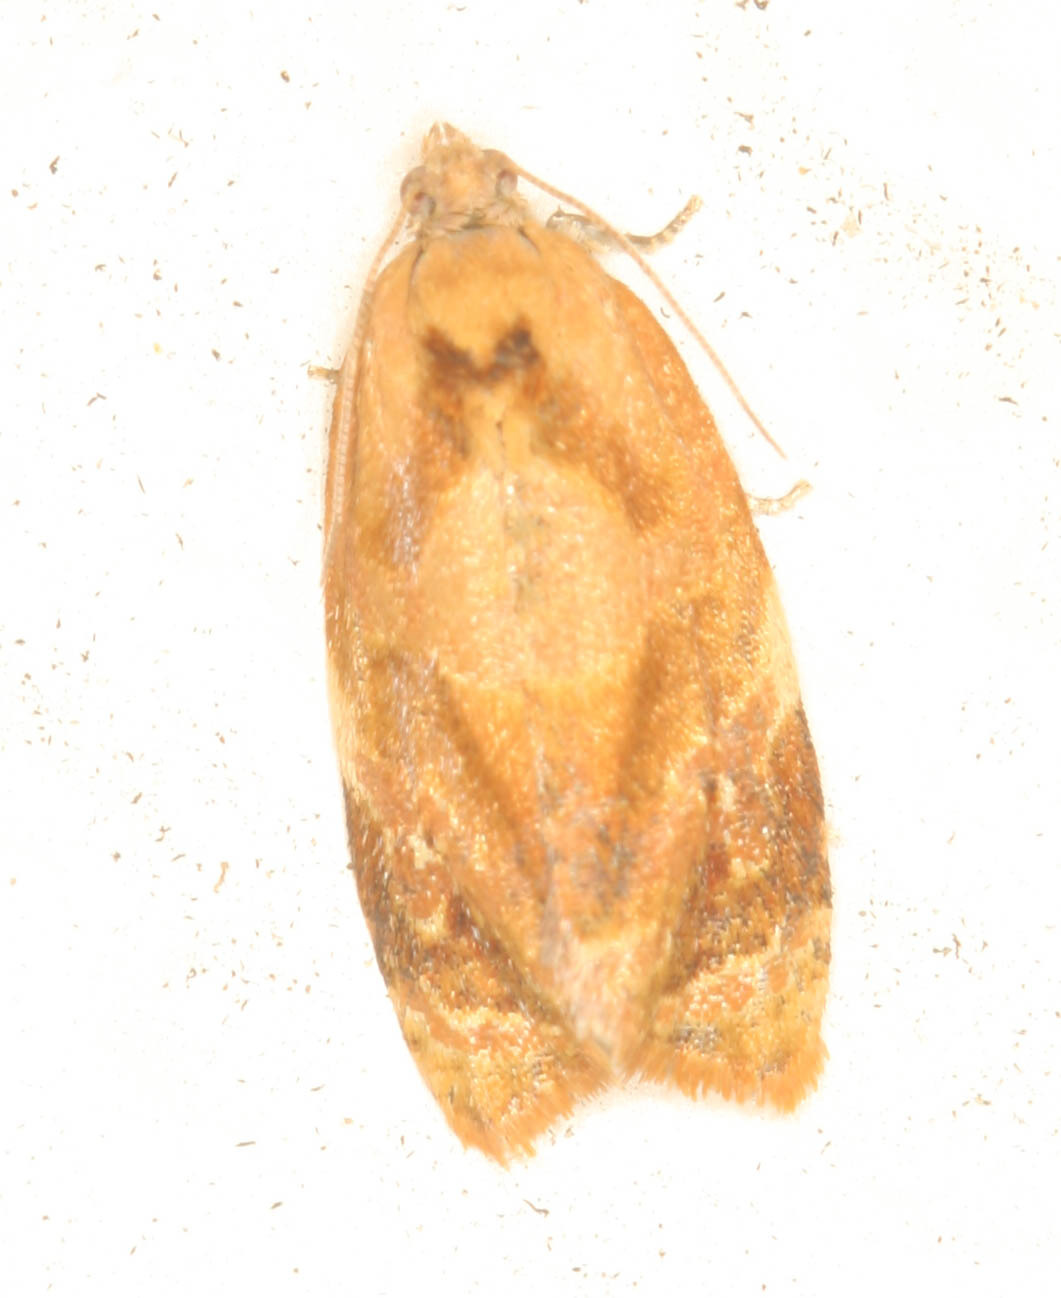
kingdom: Animalia
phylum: Arthropoda
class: Insecta
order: Lepidoptera
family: Tortricidae
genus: Ditula
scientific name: Ditula angustiorana
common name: Red-barred tortrix
